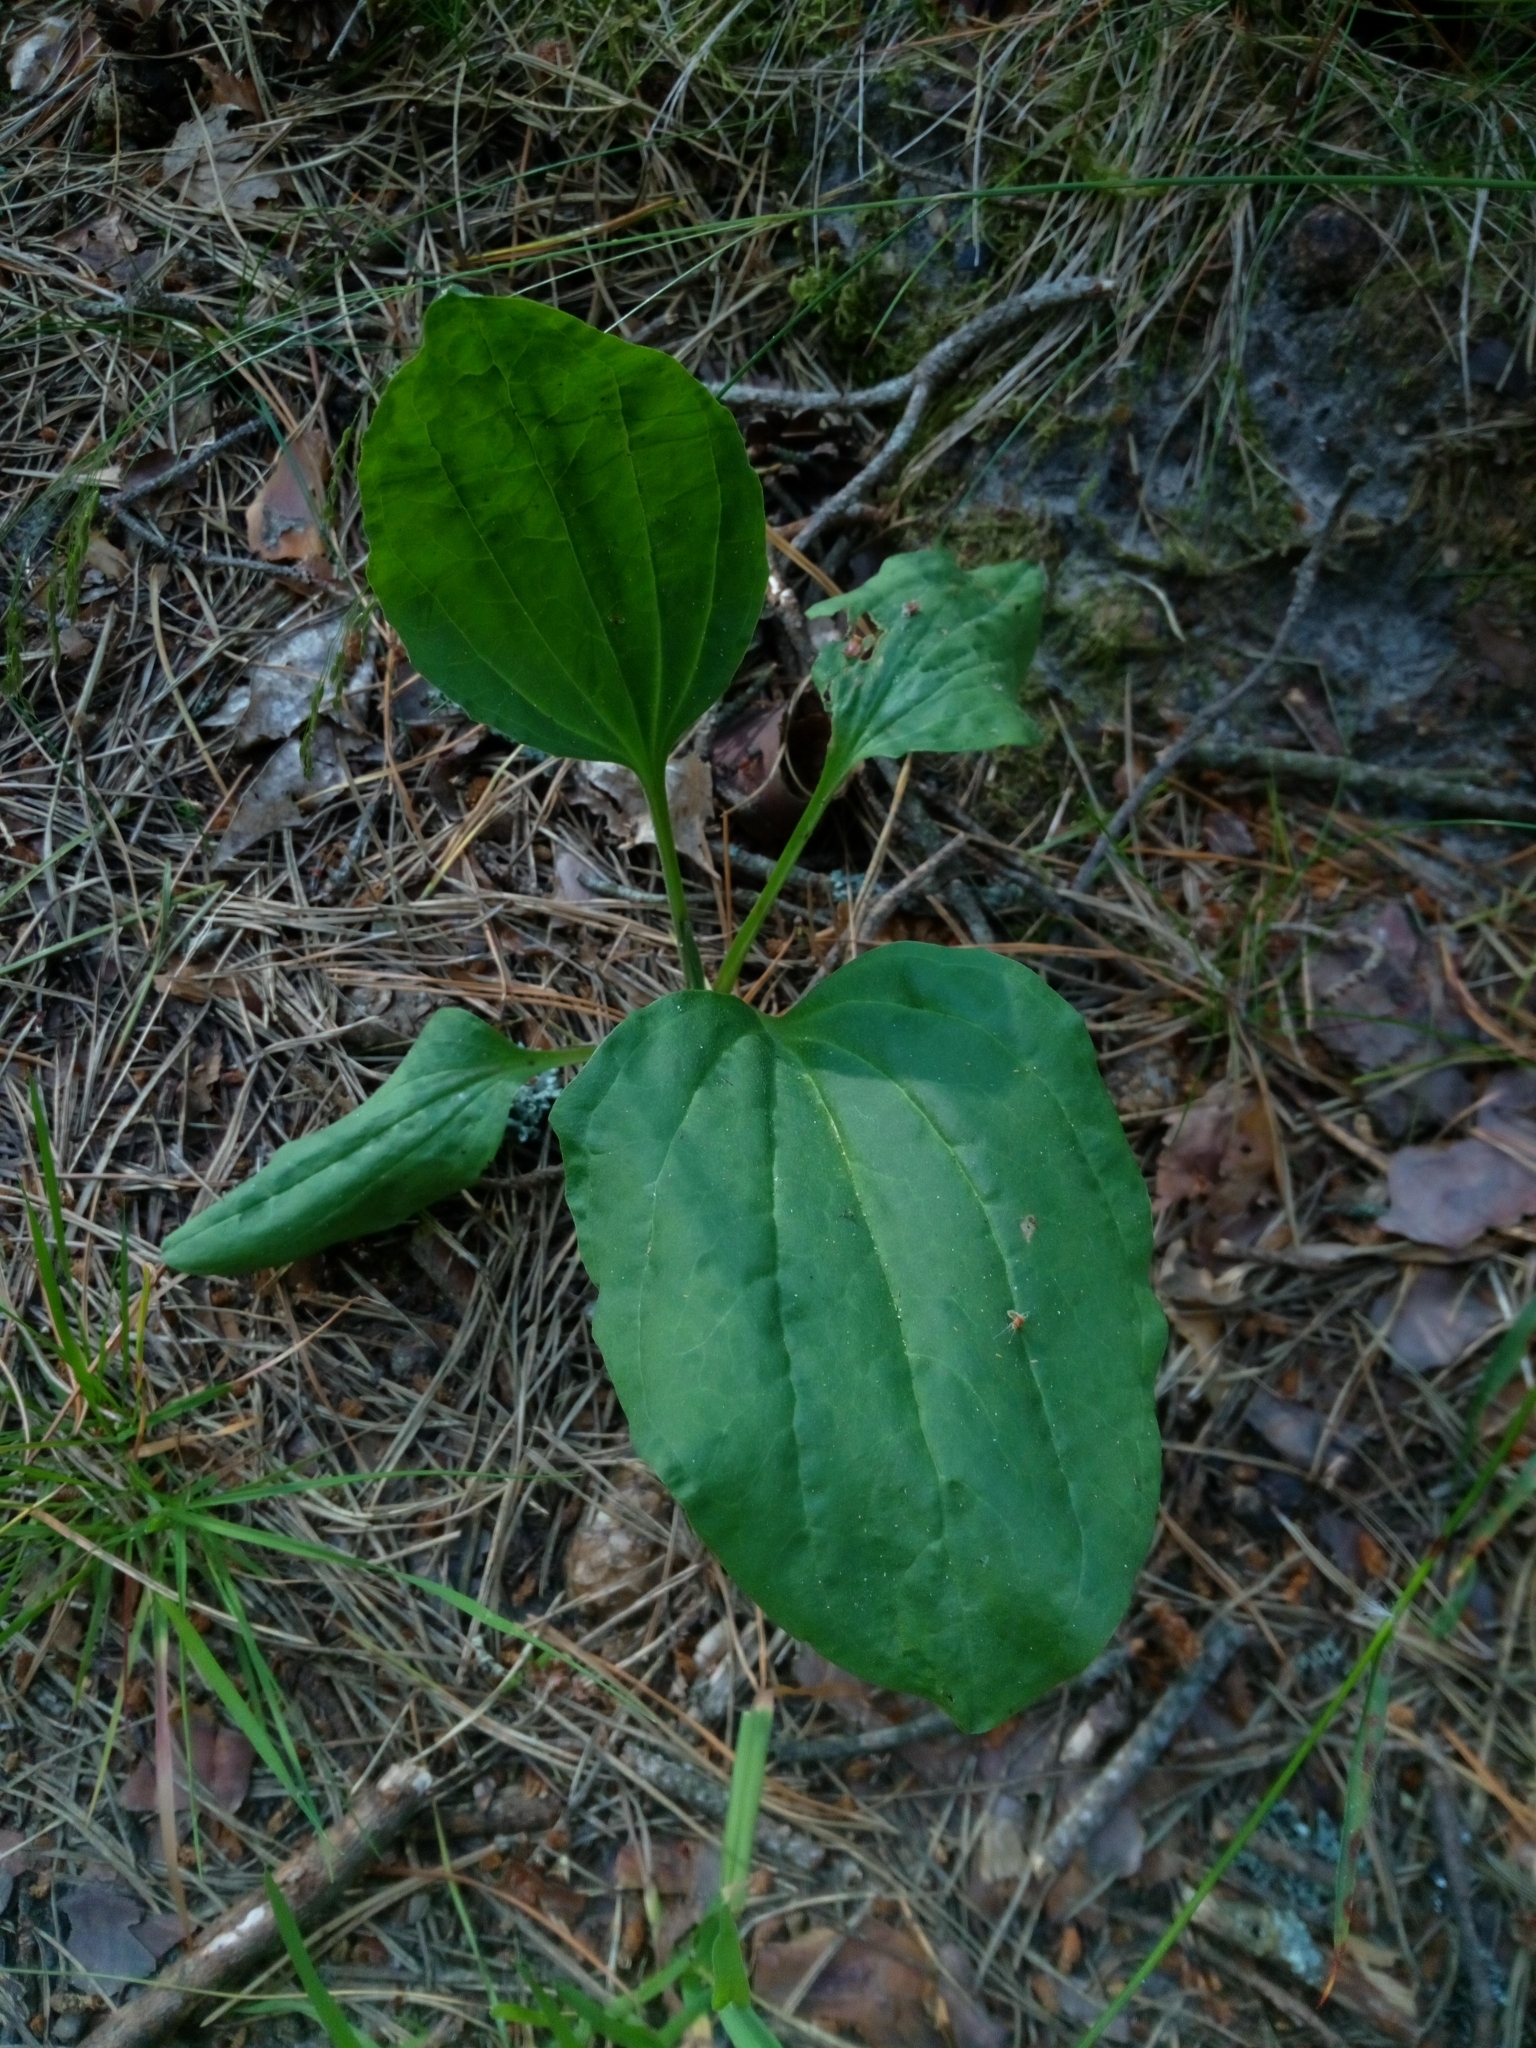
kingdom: Plantae
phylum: Tracheophyta
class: Magnoliopsida
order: Lamiales
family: Plantaginaceae
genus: Plantago
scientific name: Plantago major
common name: Common plantain
